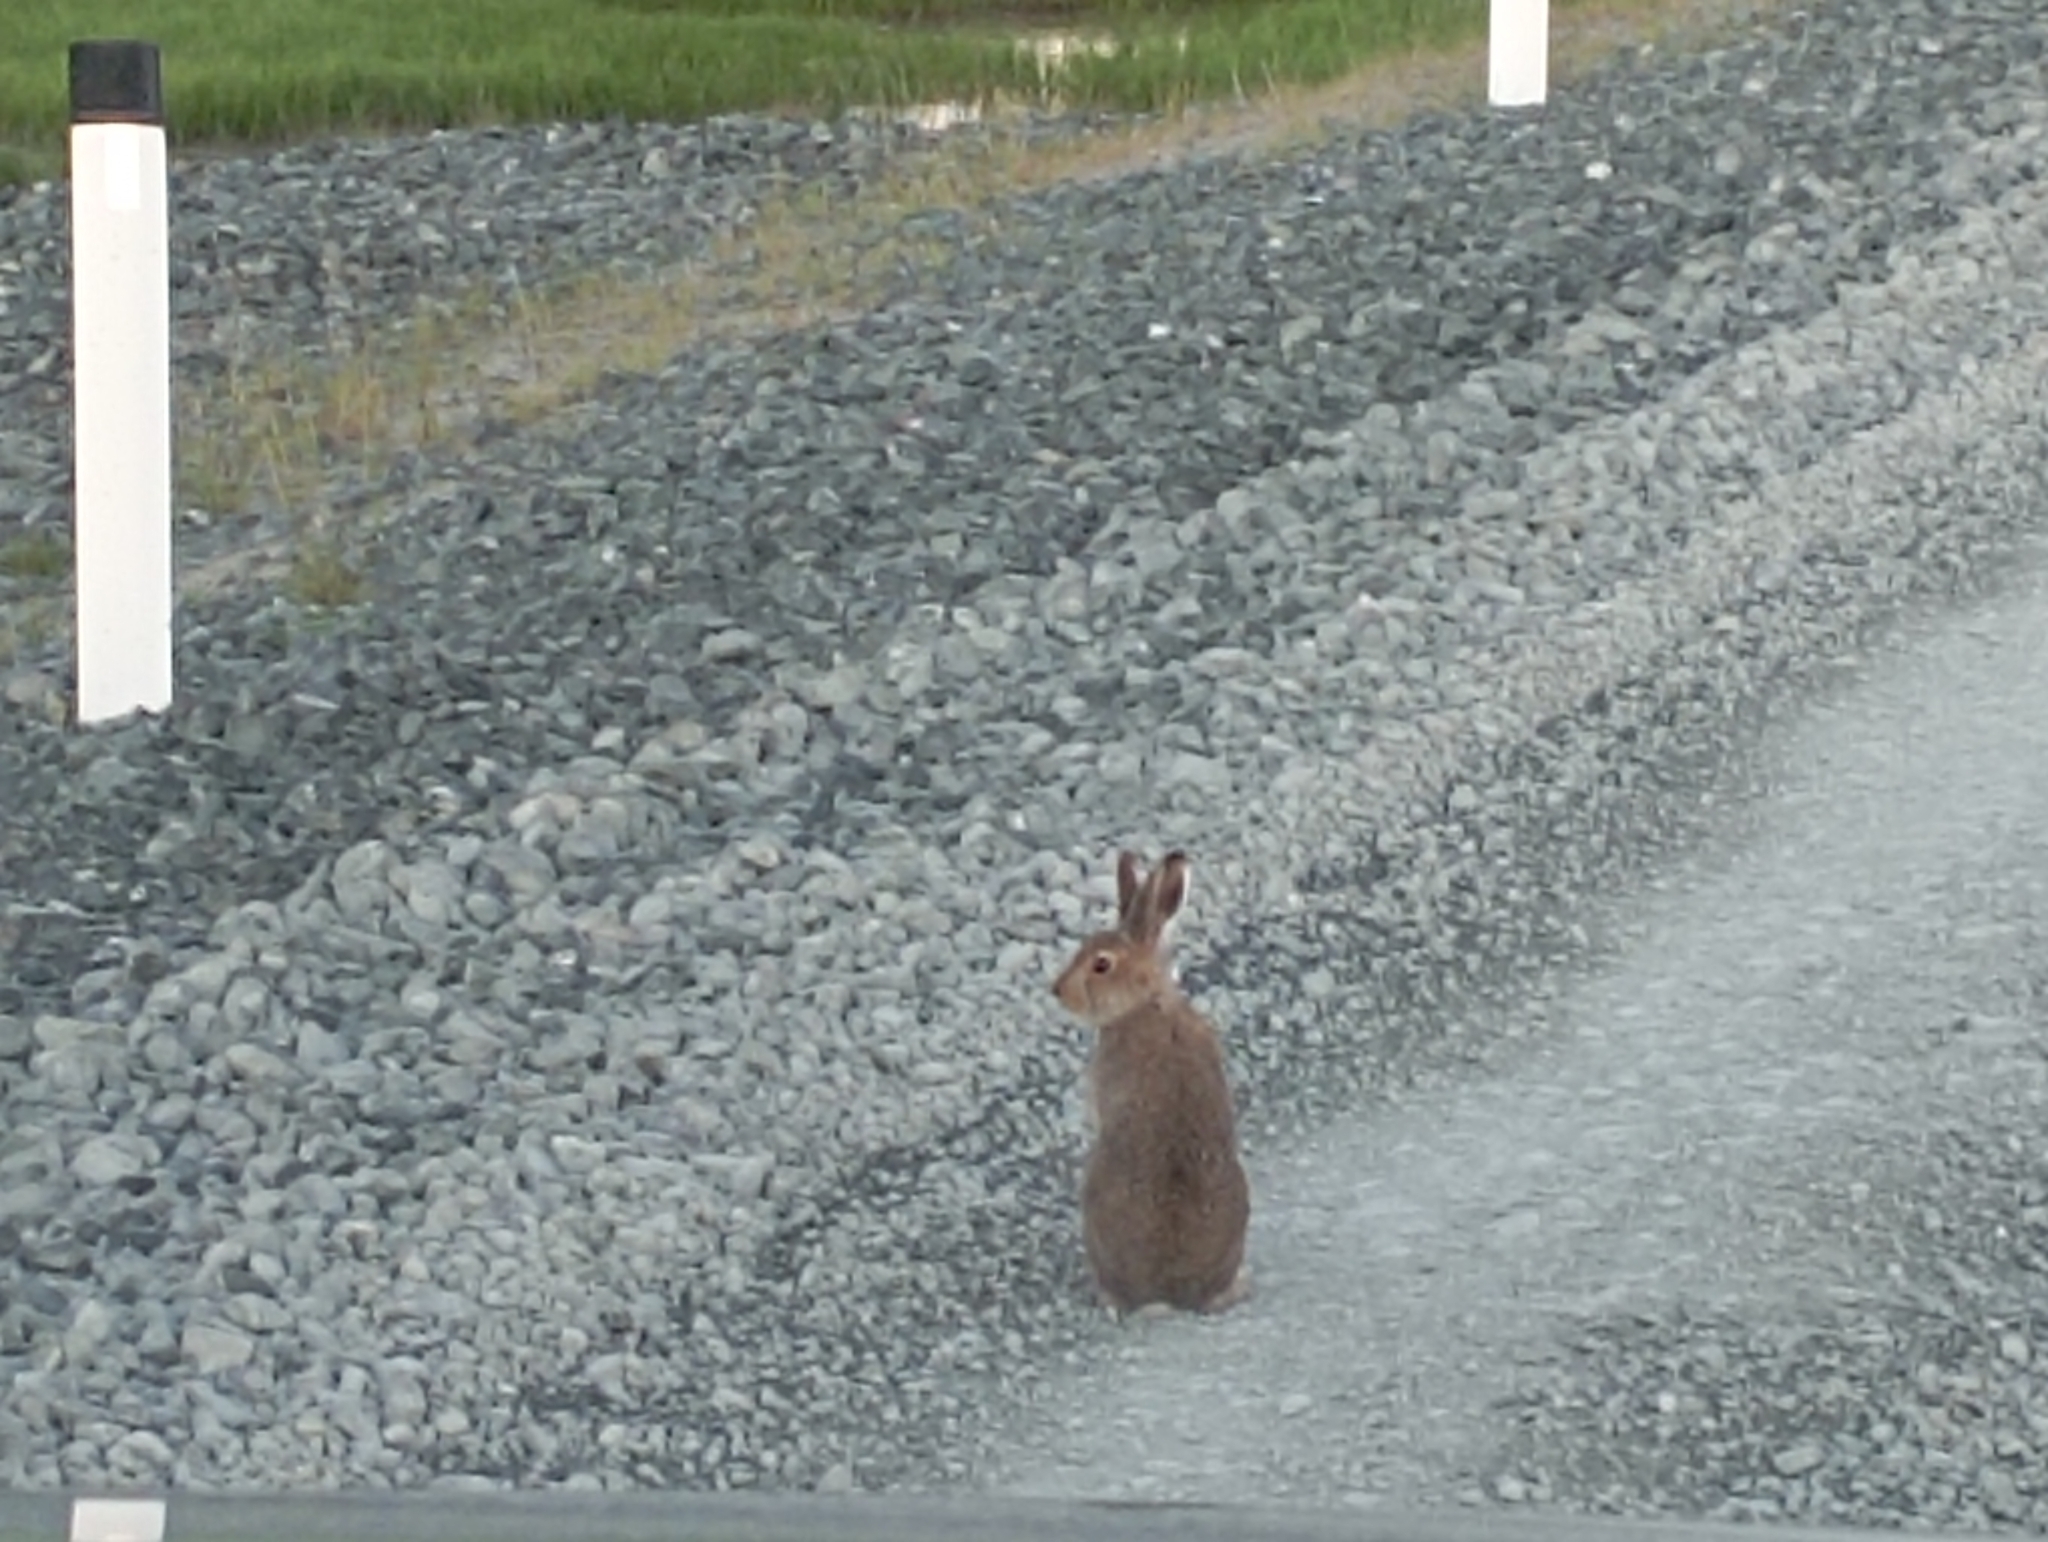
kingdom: Animalia
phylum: Chordata
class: Mammalia
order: Lagomorpha
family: Leporidae
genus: Lepus
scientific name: Lepus timidus
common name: Mountain hare
